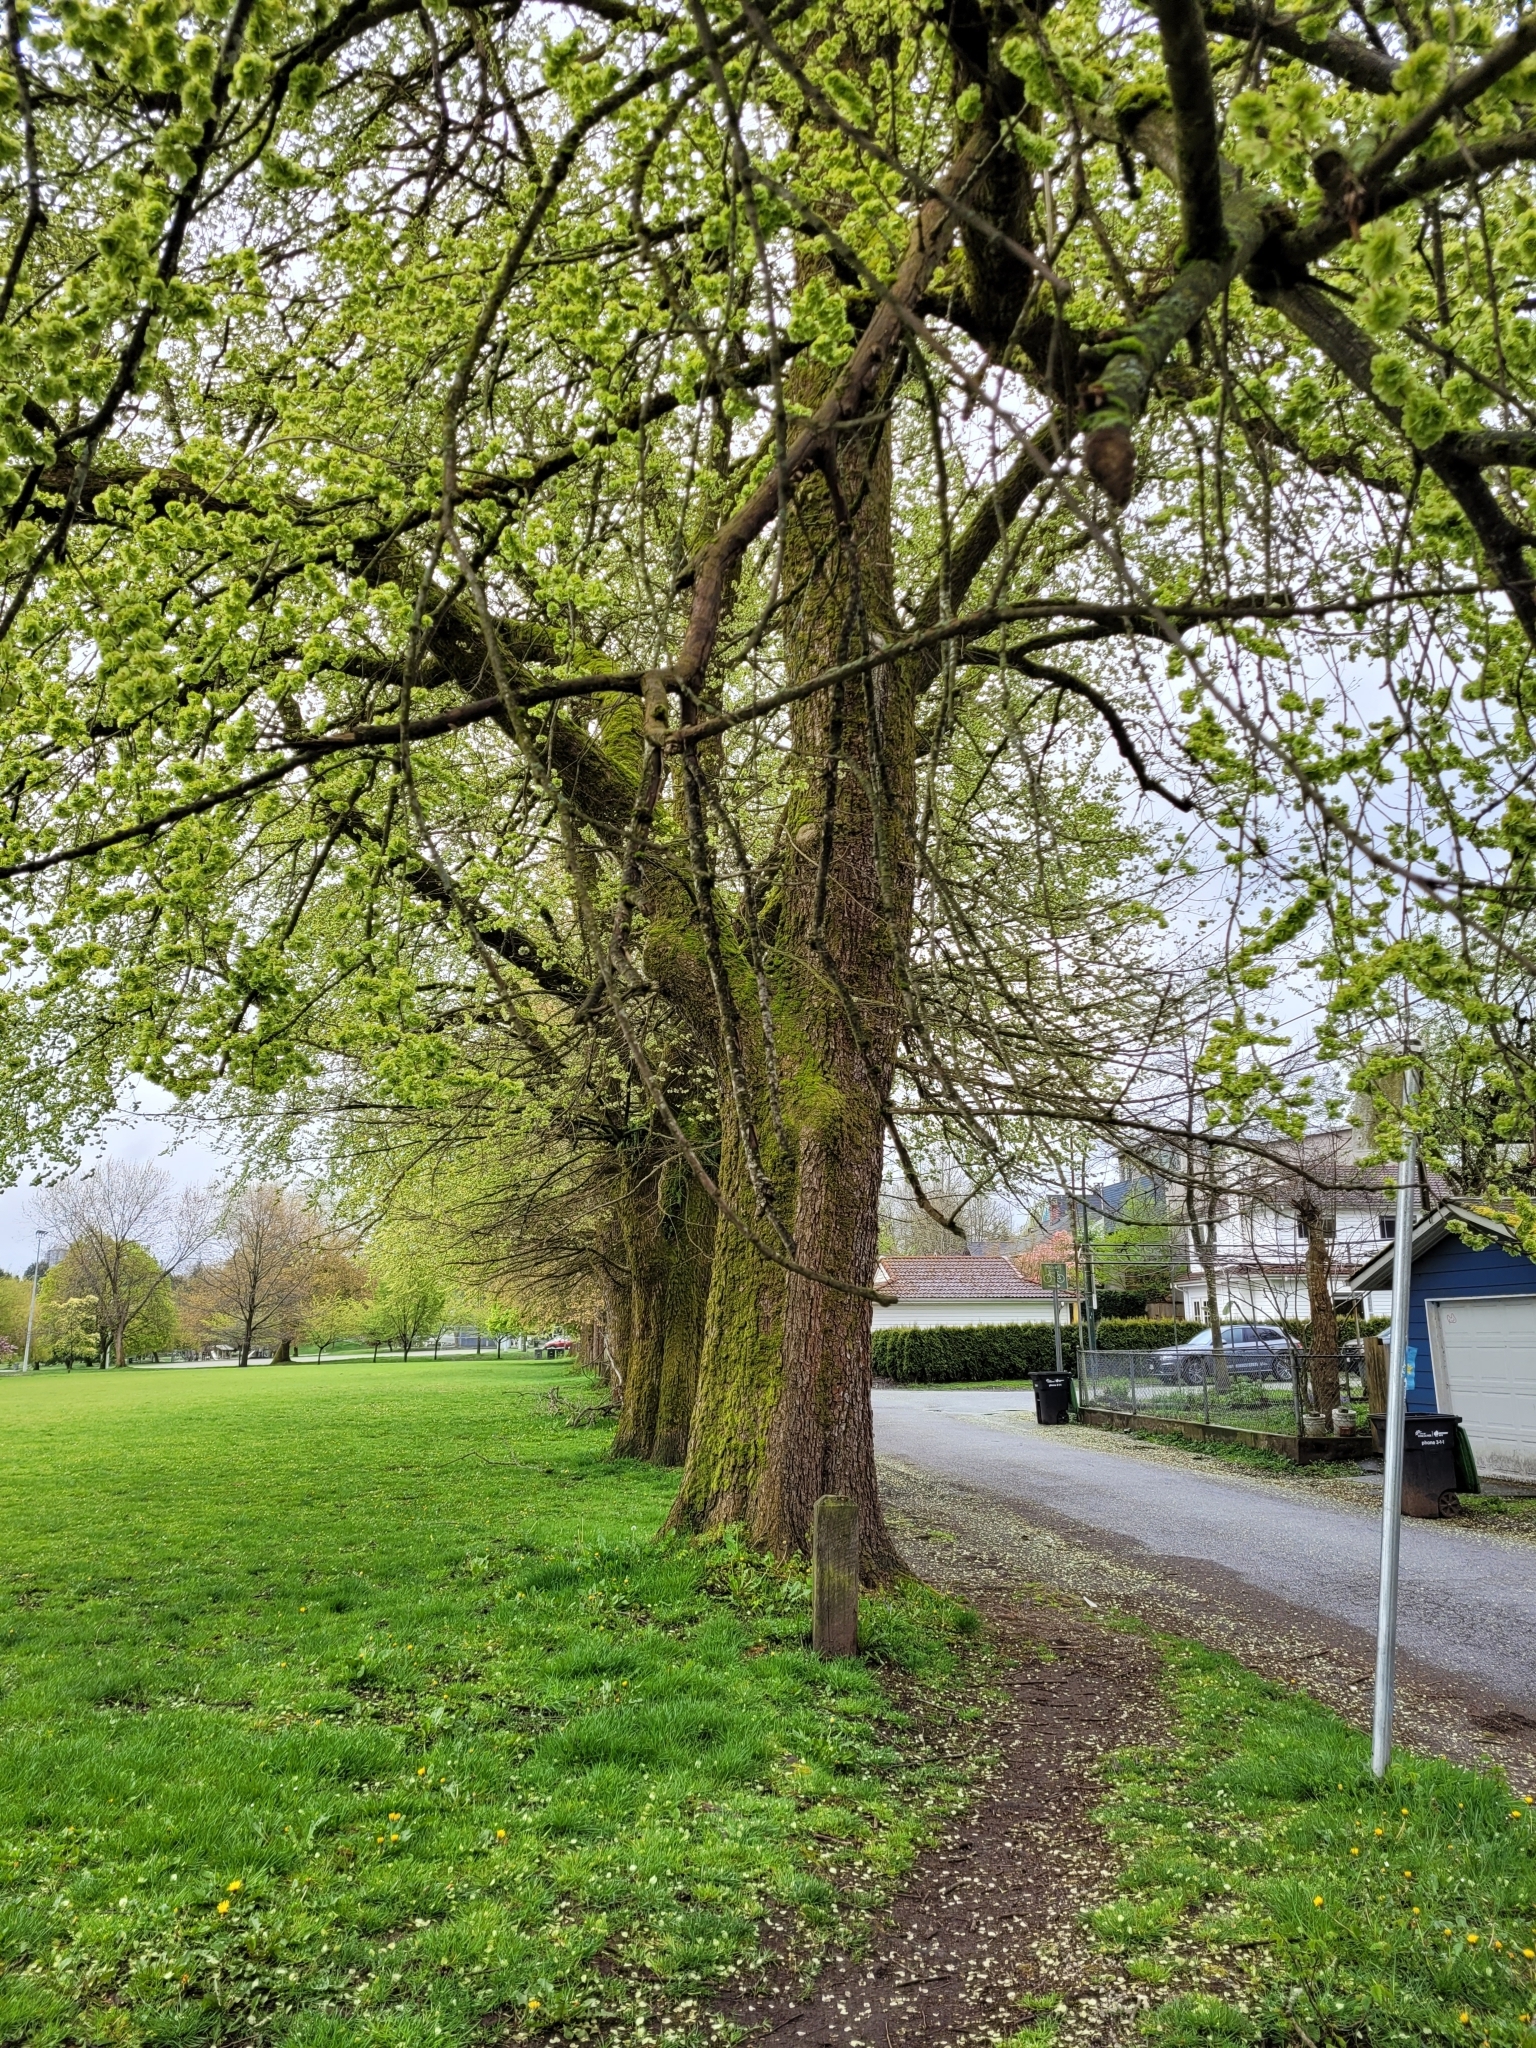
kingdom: Plantae
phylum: Tracheophyta
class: Magnoliopsida
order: Rosales
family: Ulmaceae
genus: Ulmus
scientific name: Ulmus minor
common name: Small-leaved elm
